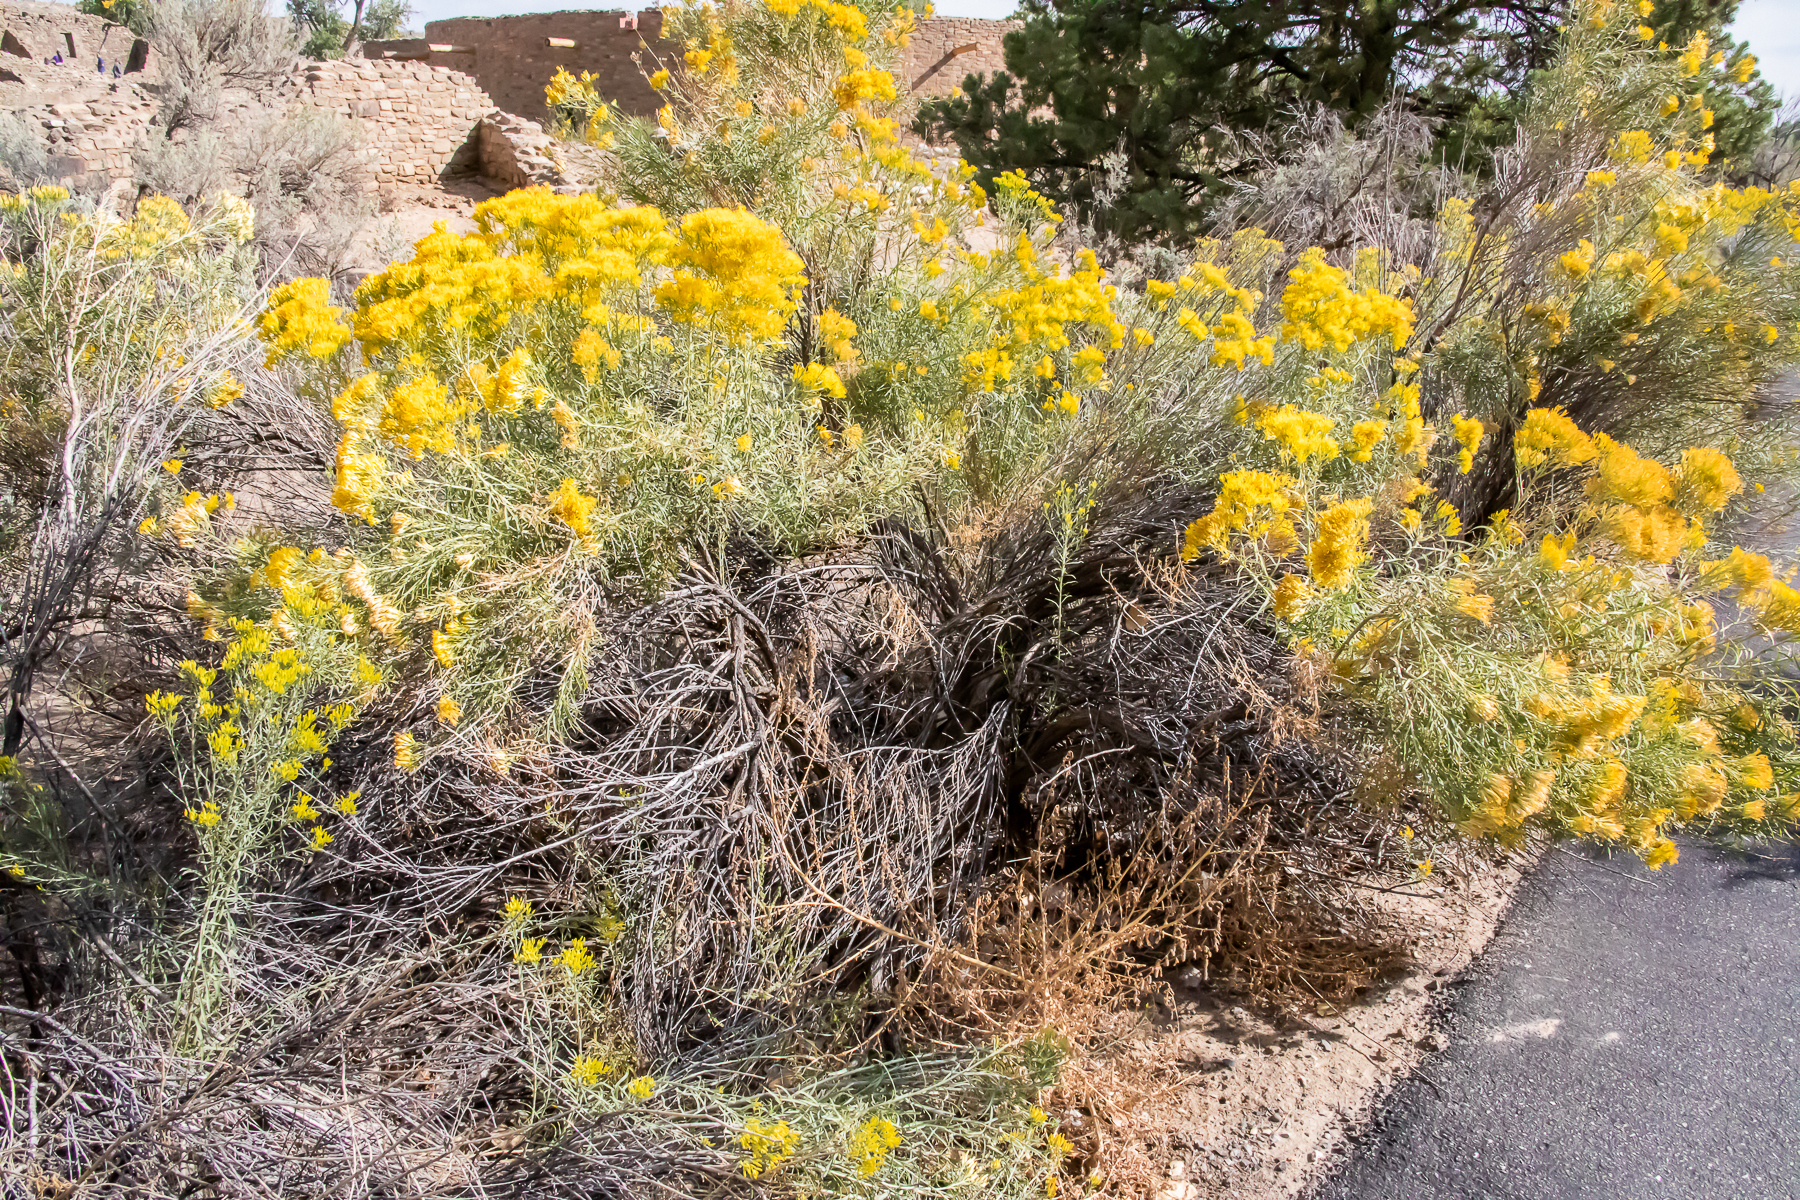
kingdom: Plantae
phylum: Tracheophyta
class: Magnoliopsida
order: Asterales
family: Asteraceae
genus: Chrysothamnus
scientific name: Chrysothamnus viscidiflorus
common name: Yellow rabbitbrush
